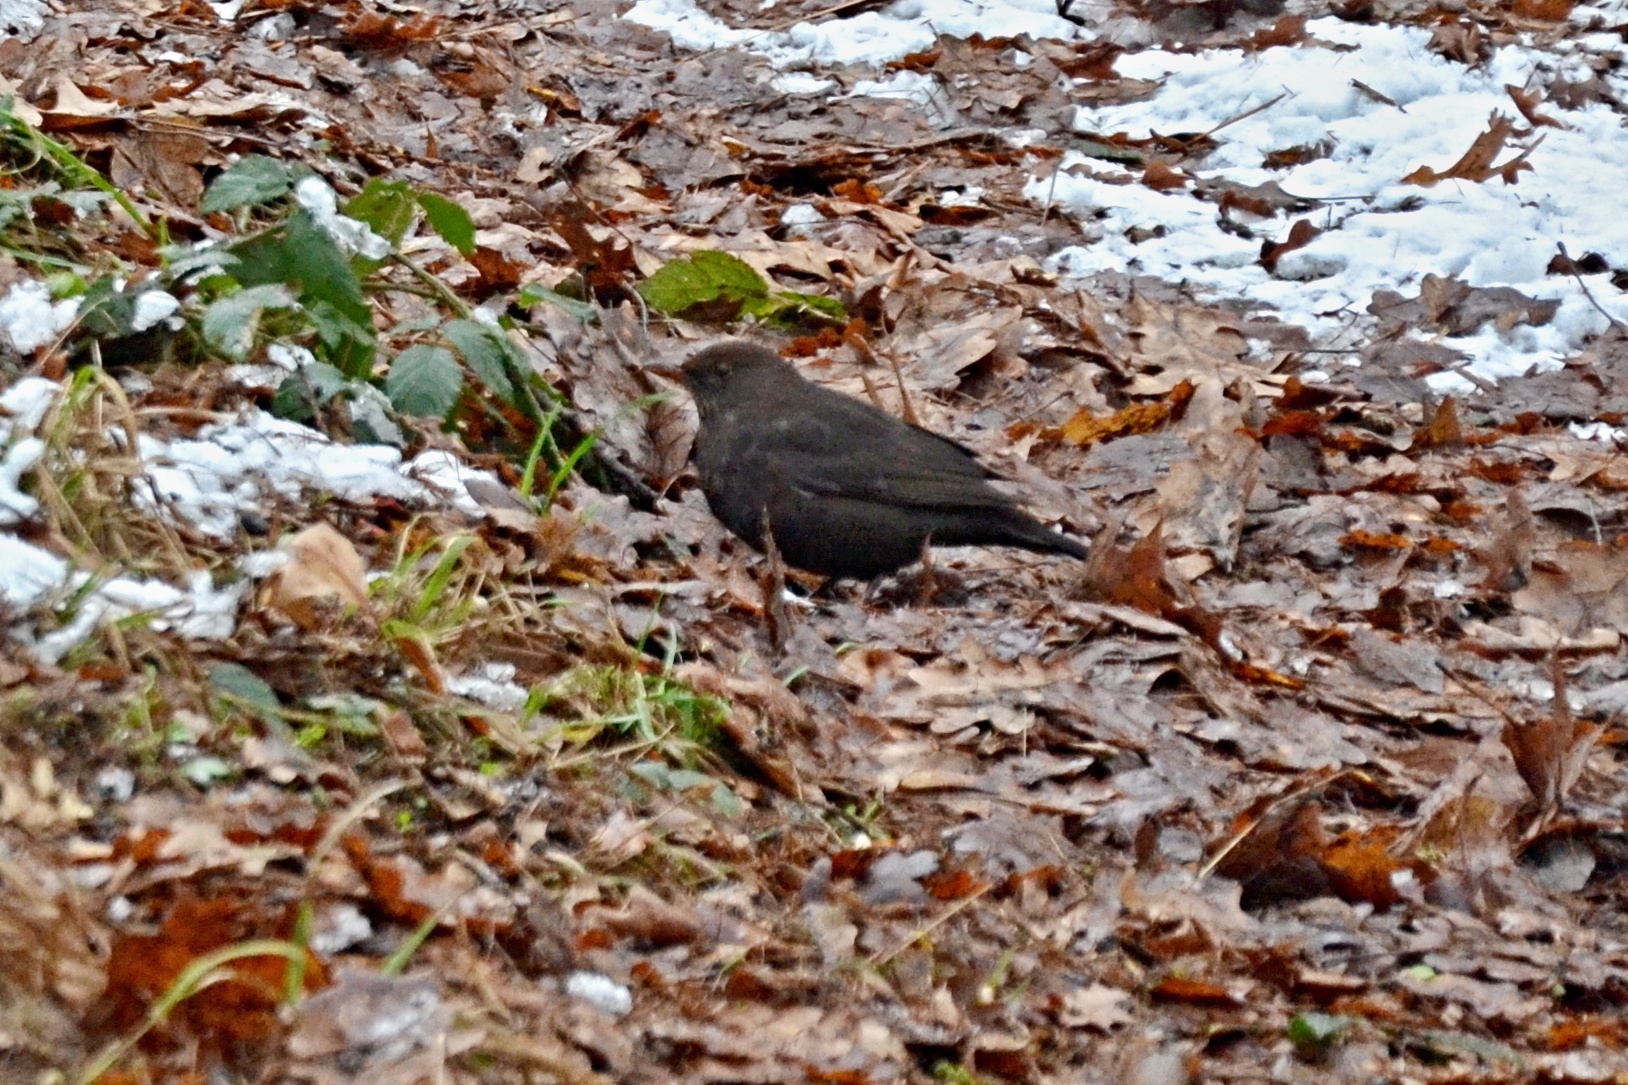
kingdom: Animalia
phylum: Chordata
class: Aves
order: Passeriformes
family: Turdidae
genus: Turdus
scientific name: Turdus merula
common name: Common blackbird
